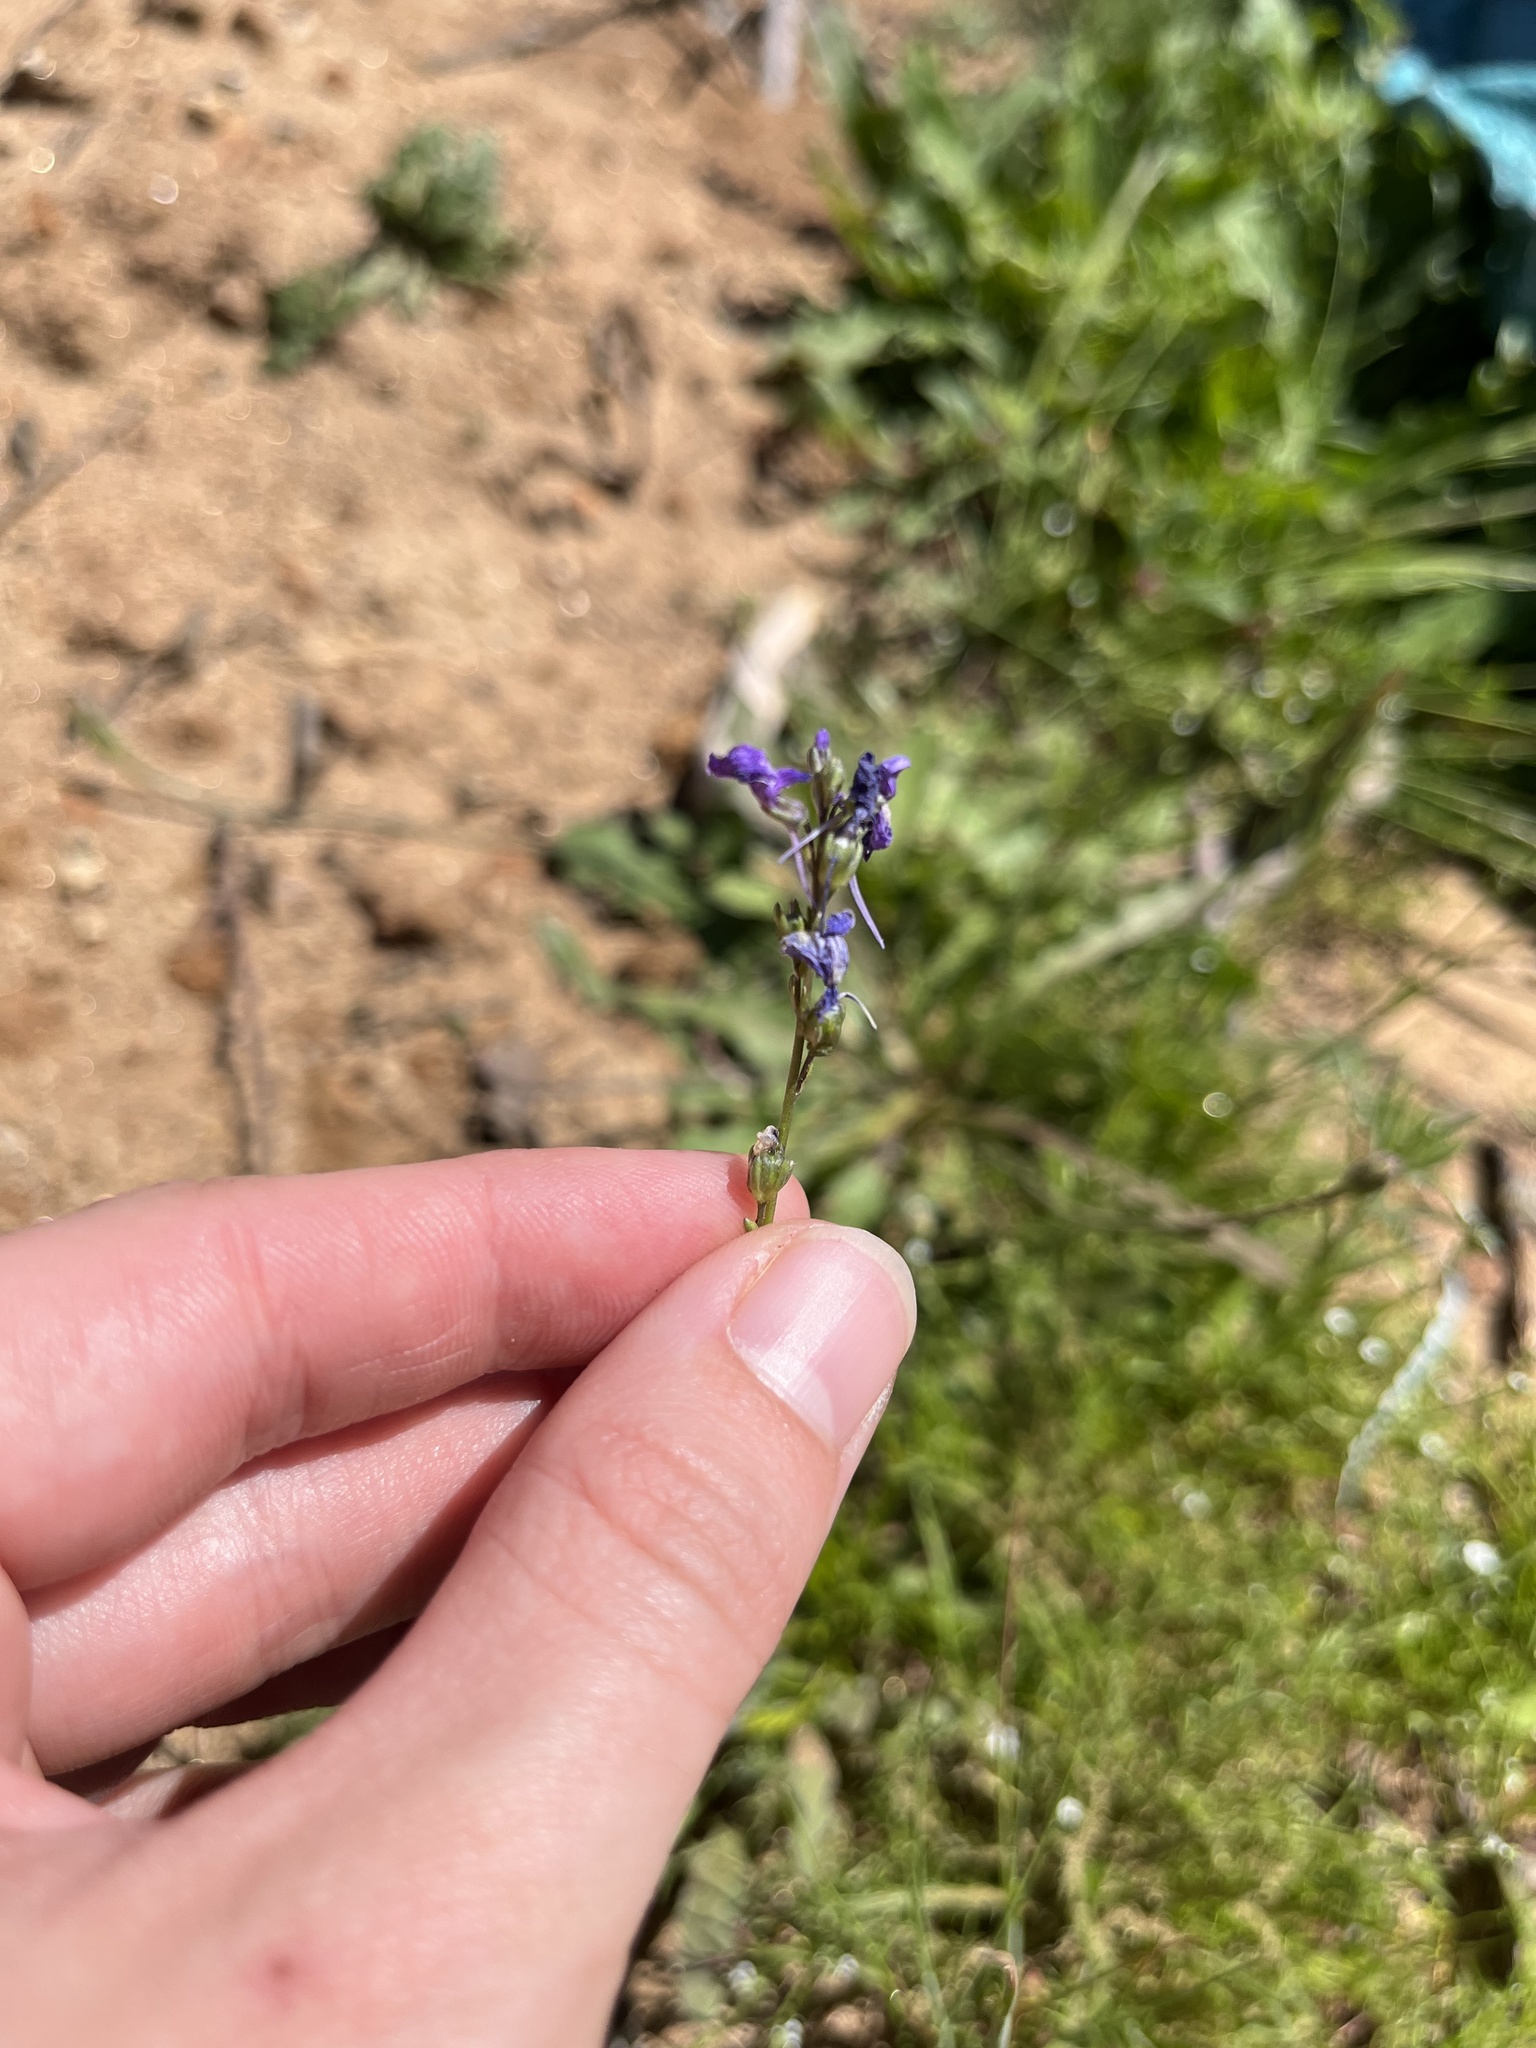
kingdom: Plantae
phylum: Tracheophyta
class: Magnoliopsida
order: Lamiales
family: Plantaginaceae
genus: Nuttallanthus
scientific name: Nuttallanthus texanus
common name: Texas toadflax
